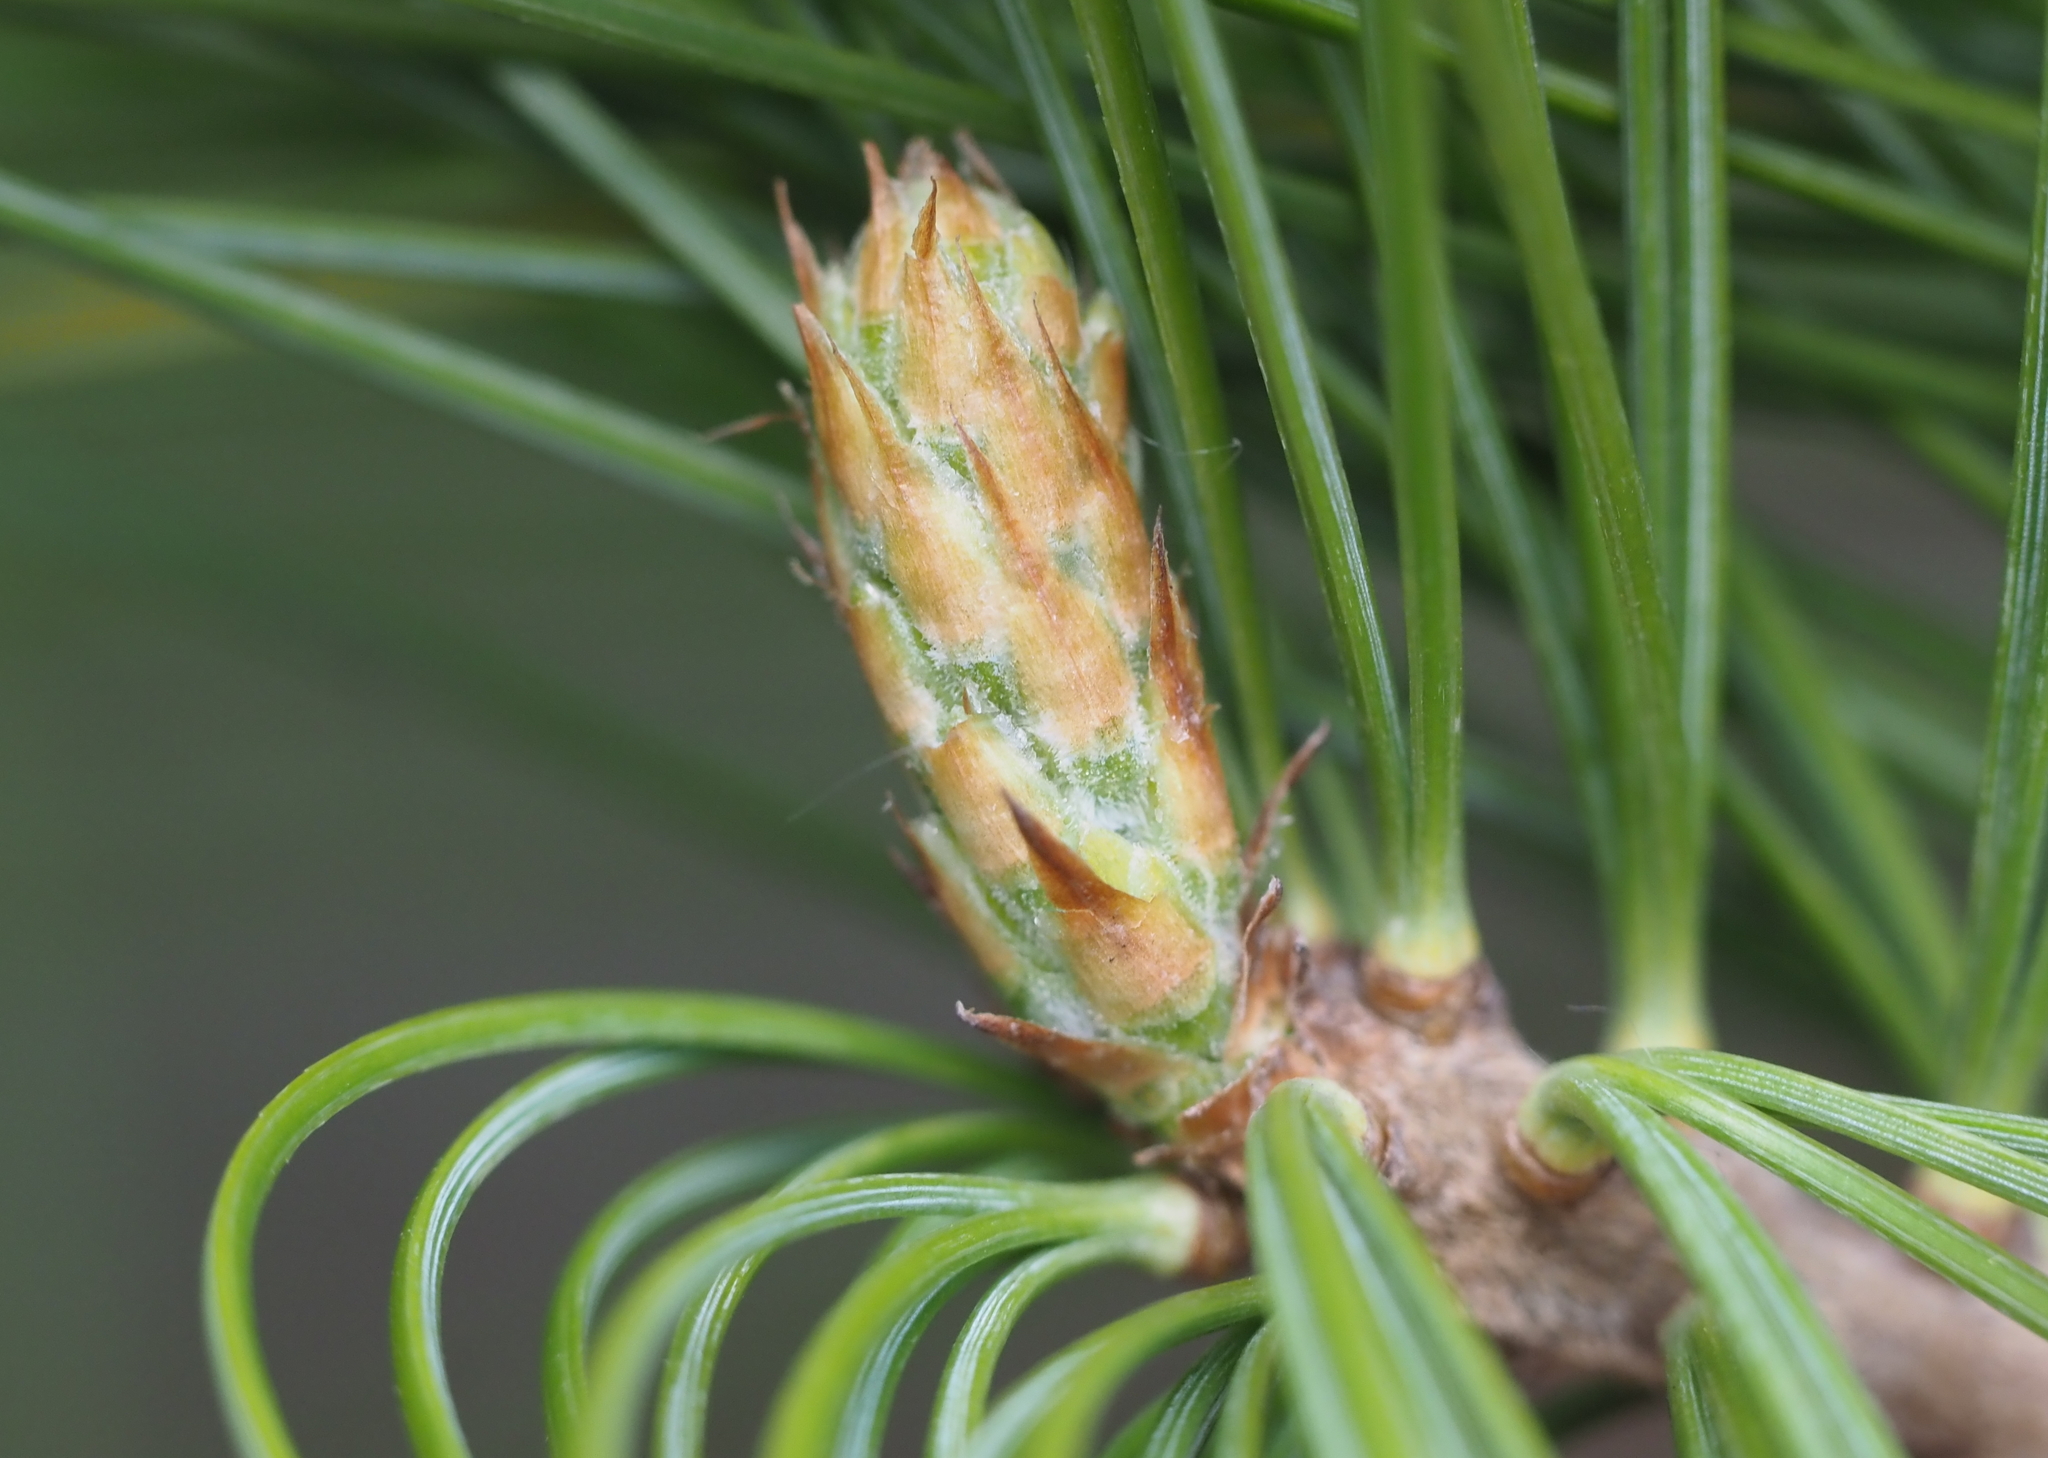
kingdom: Plantae
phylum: Tracheophyta
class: Pinopsida
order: Pinales
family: Pinaceae
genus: Pinus
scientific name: Pinus strobus
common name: Weymouth pine
